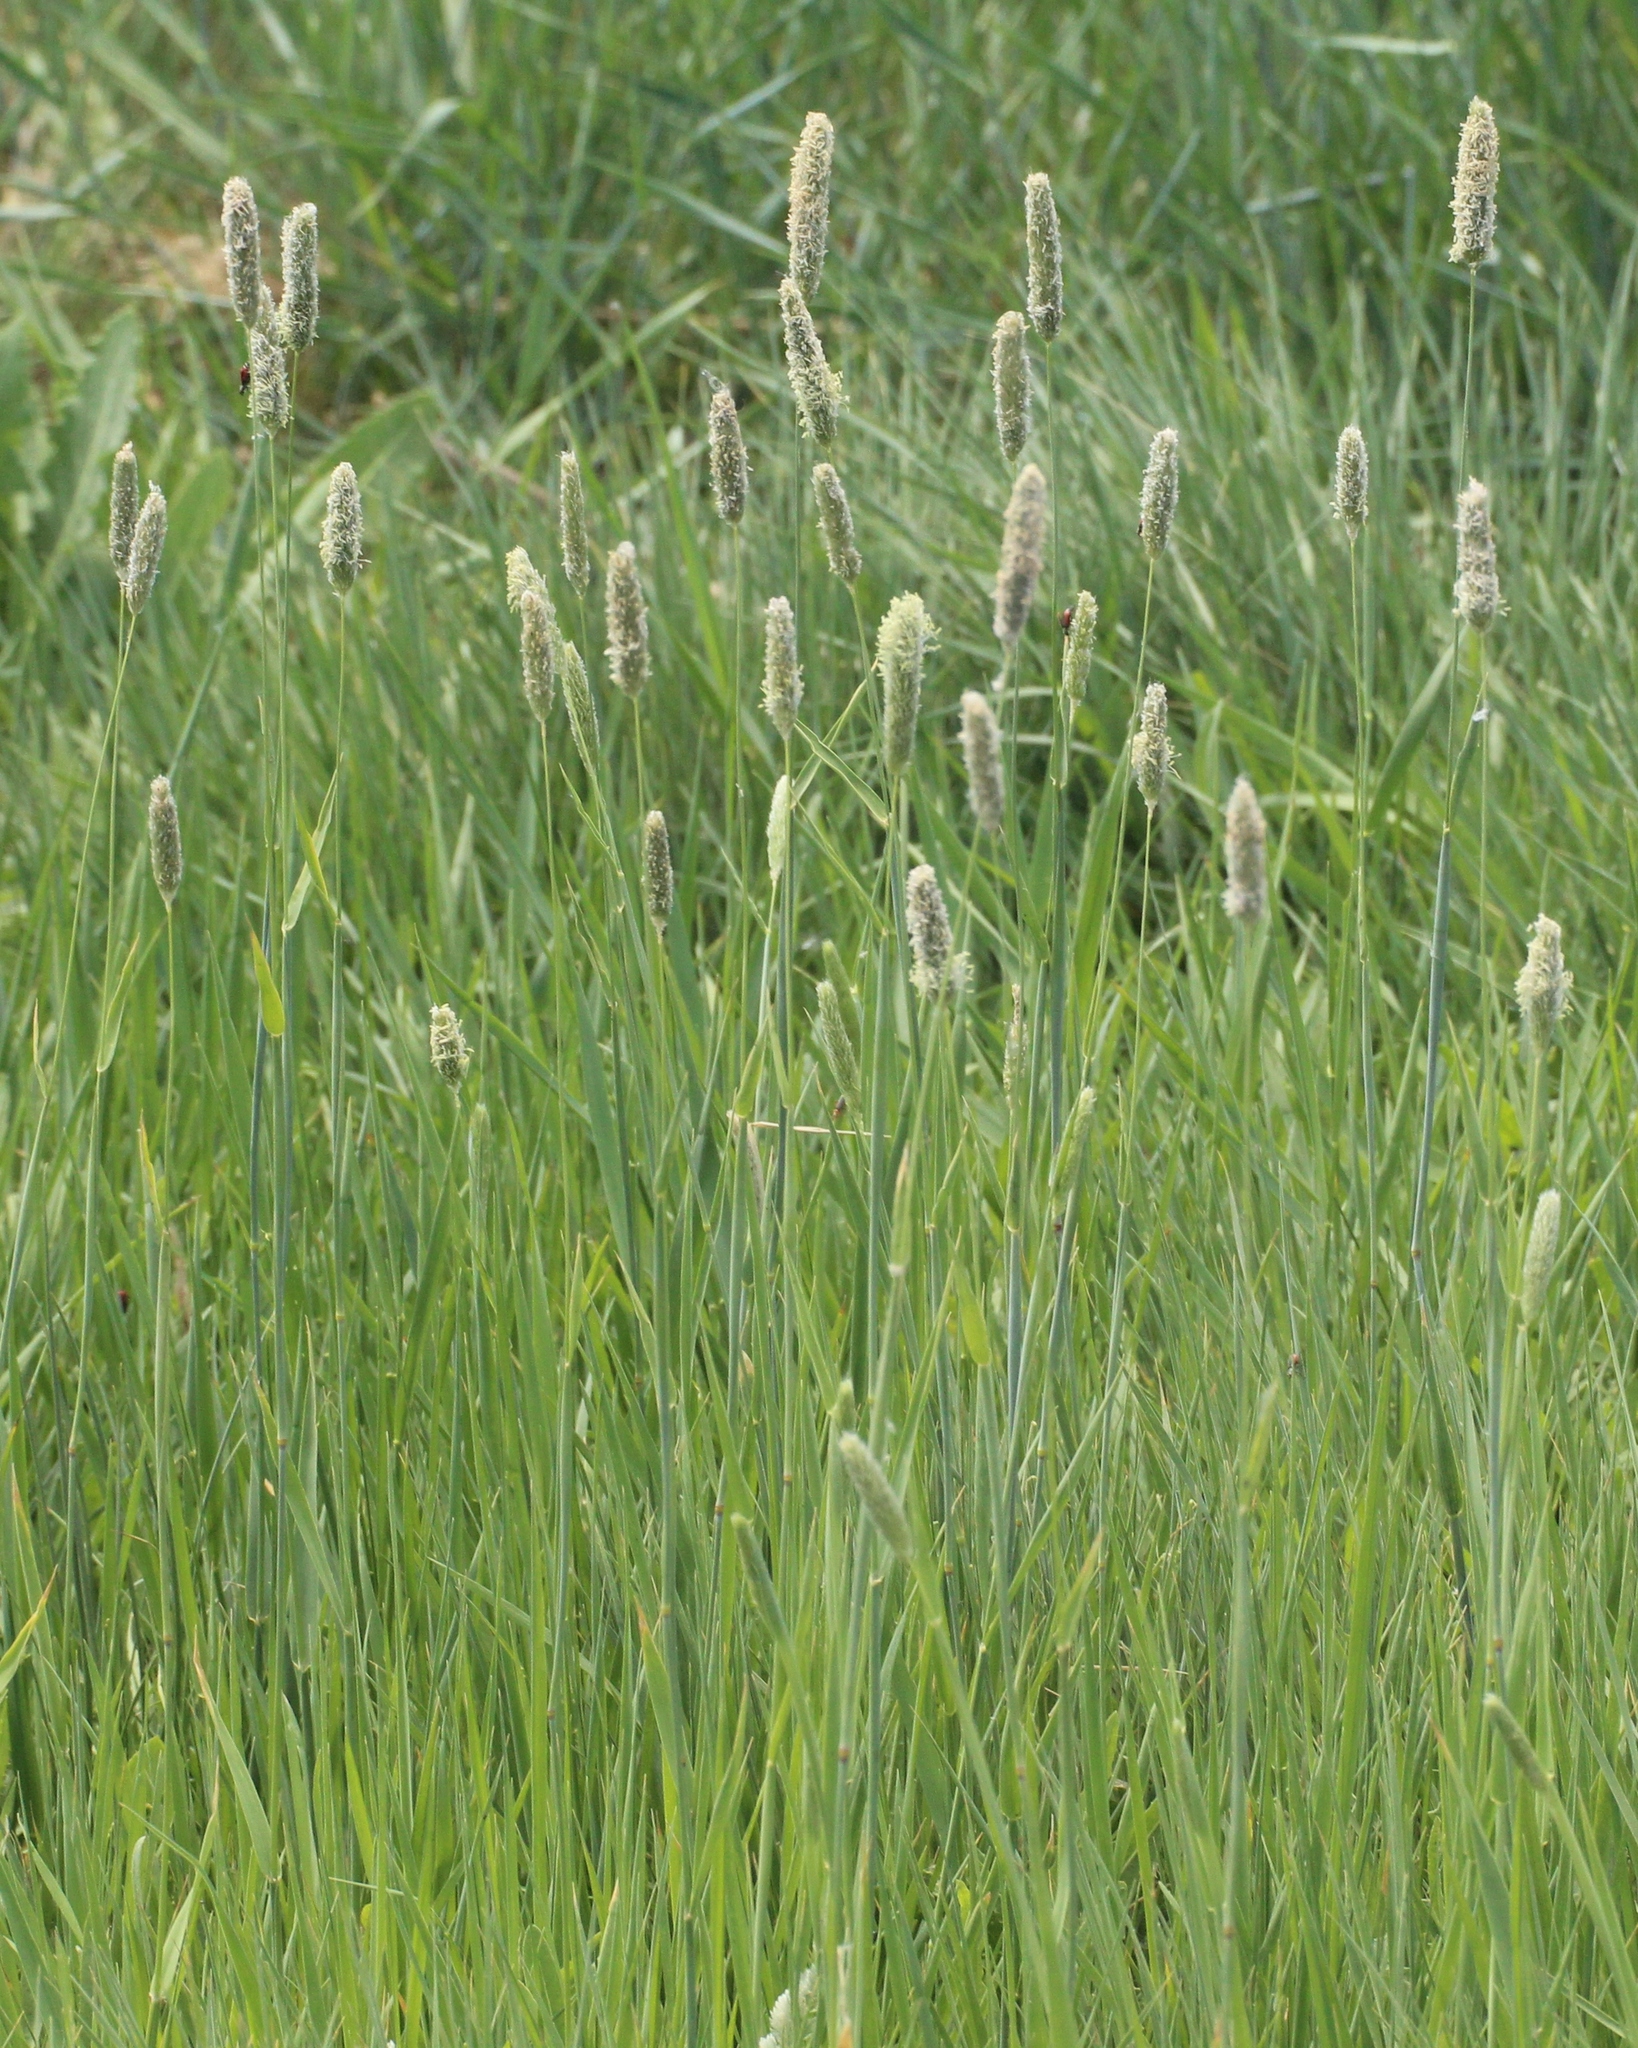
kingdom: Plantae
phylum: Tracheophyta
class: Liliopsida
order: Poales
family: Poaceae
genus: Alopecurus
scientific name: Alopecurus pratensis
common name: Meadow foxtail
